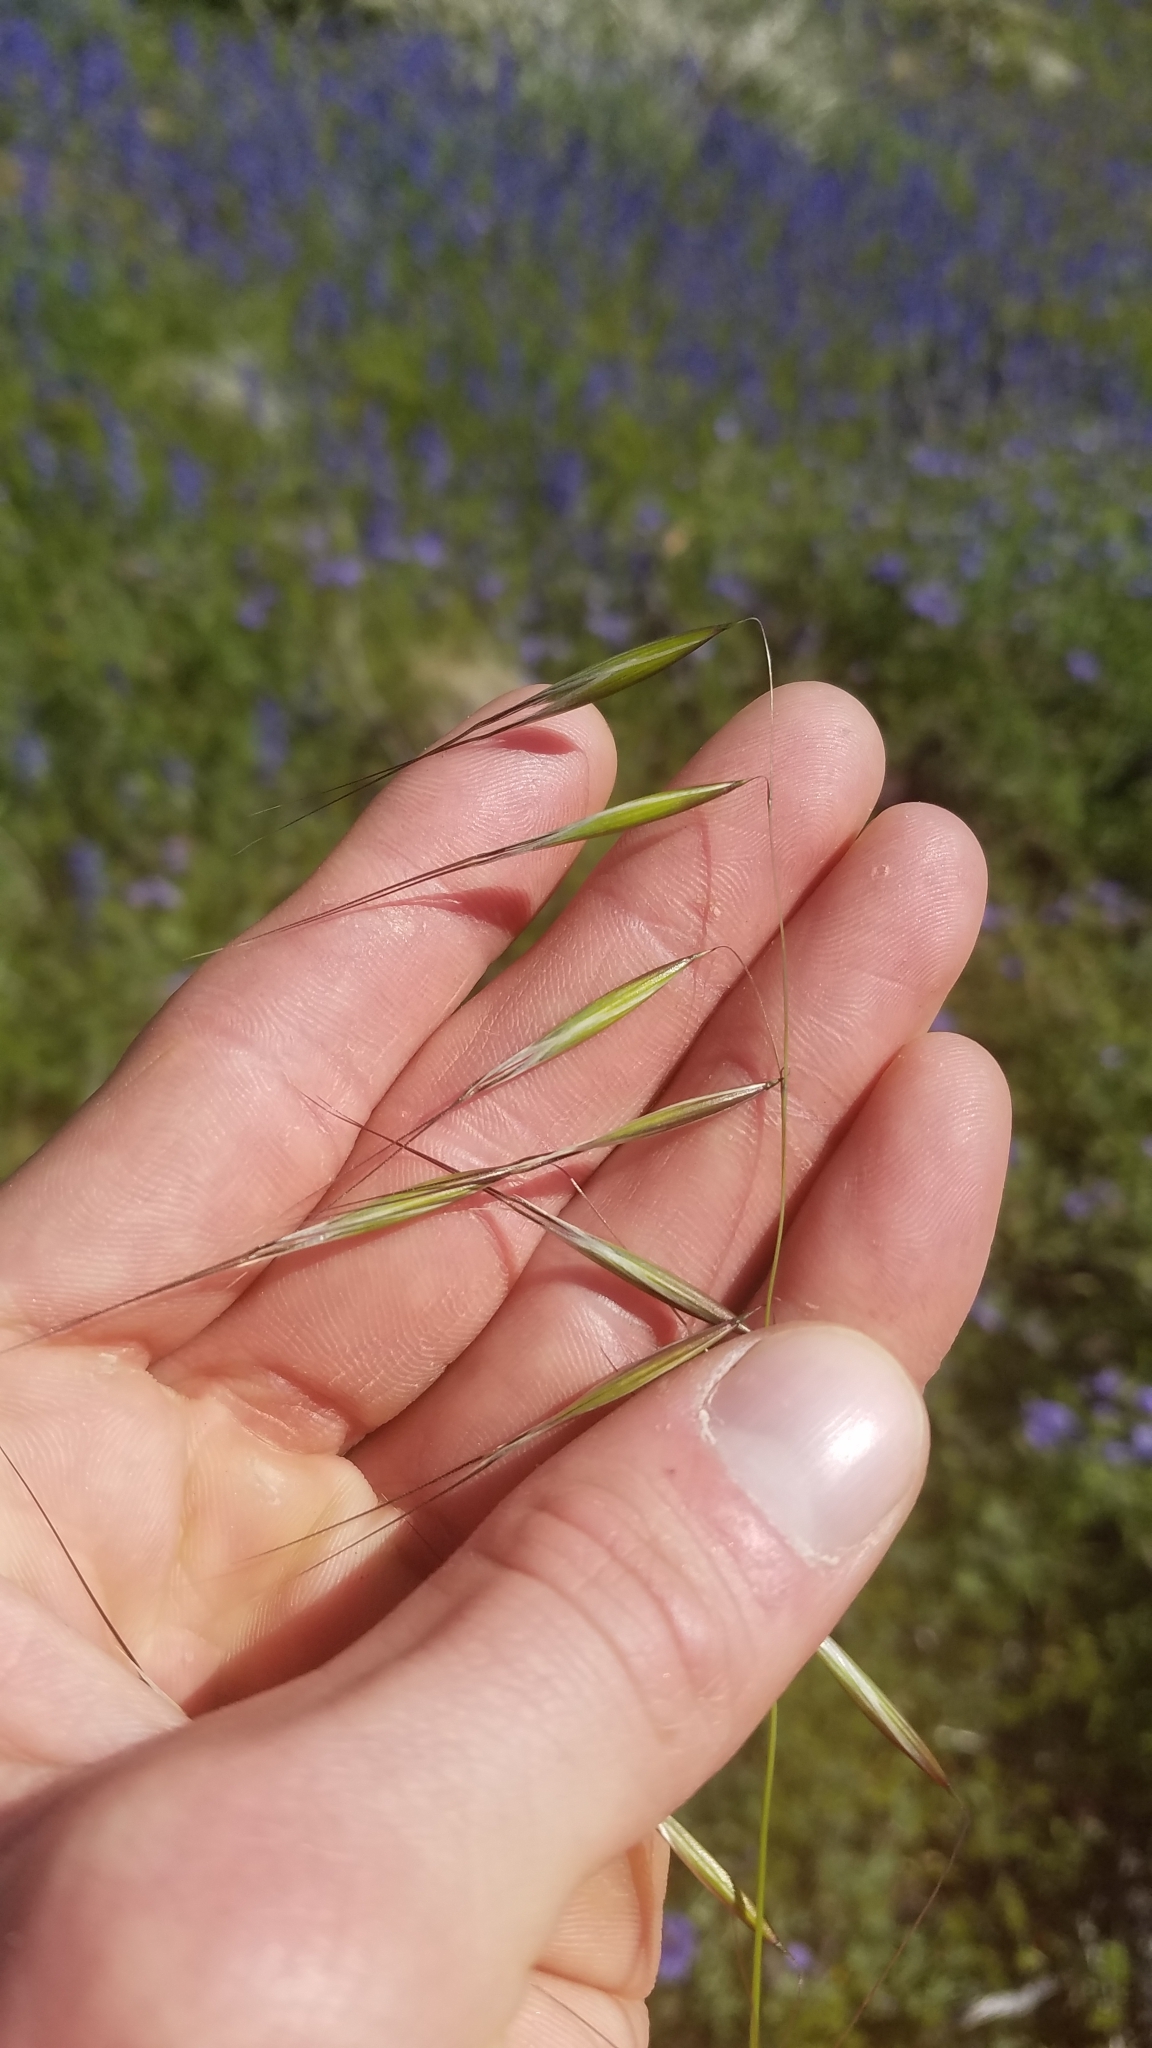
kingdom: Plantae
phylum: Tracheophyta
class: Liliopsida
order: Poales
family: Poaceae
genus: Avena
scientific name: Avena barbata
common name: Slender oat
